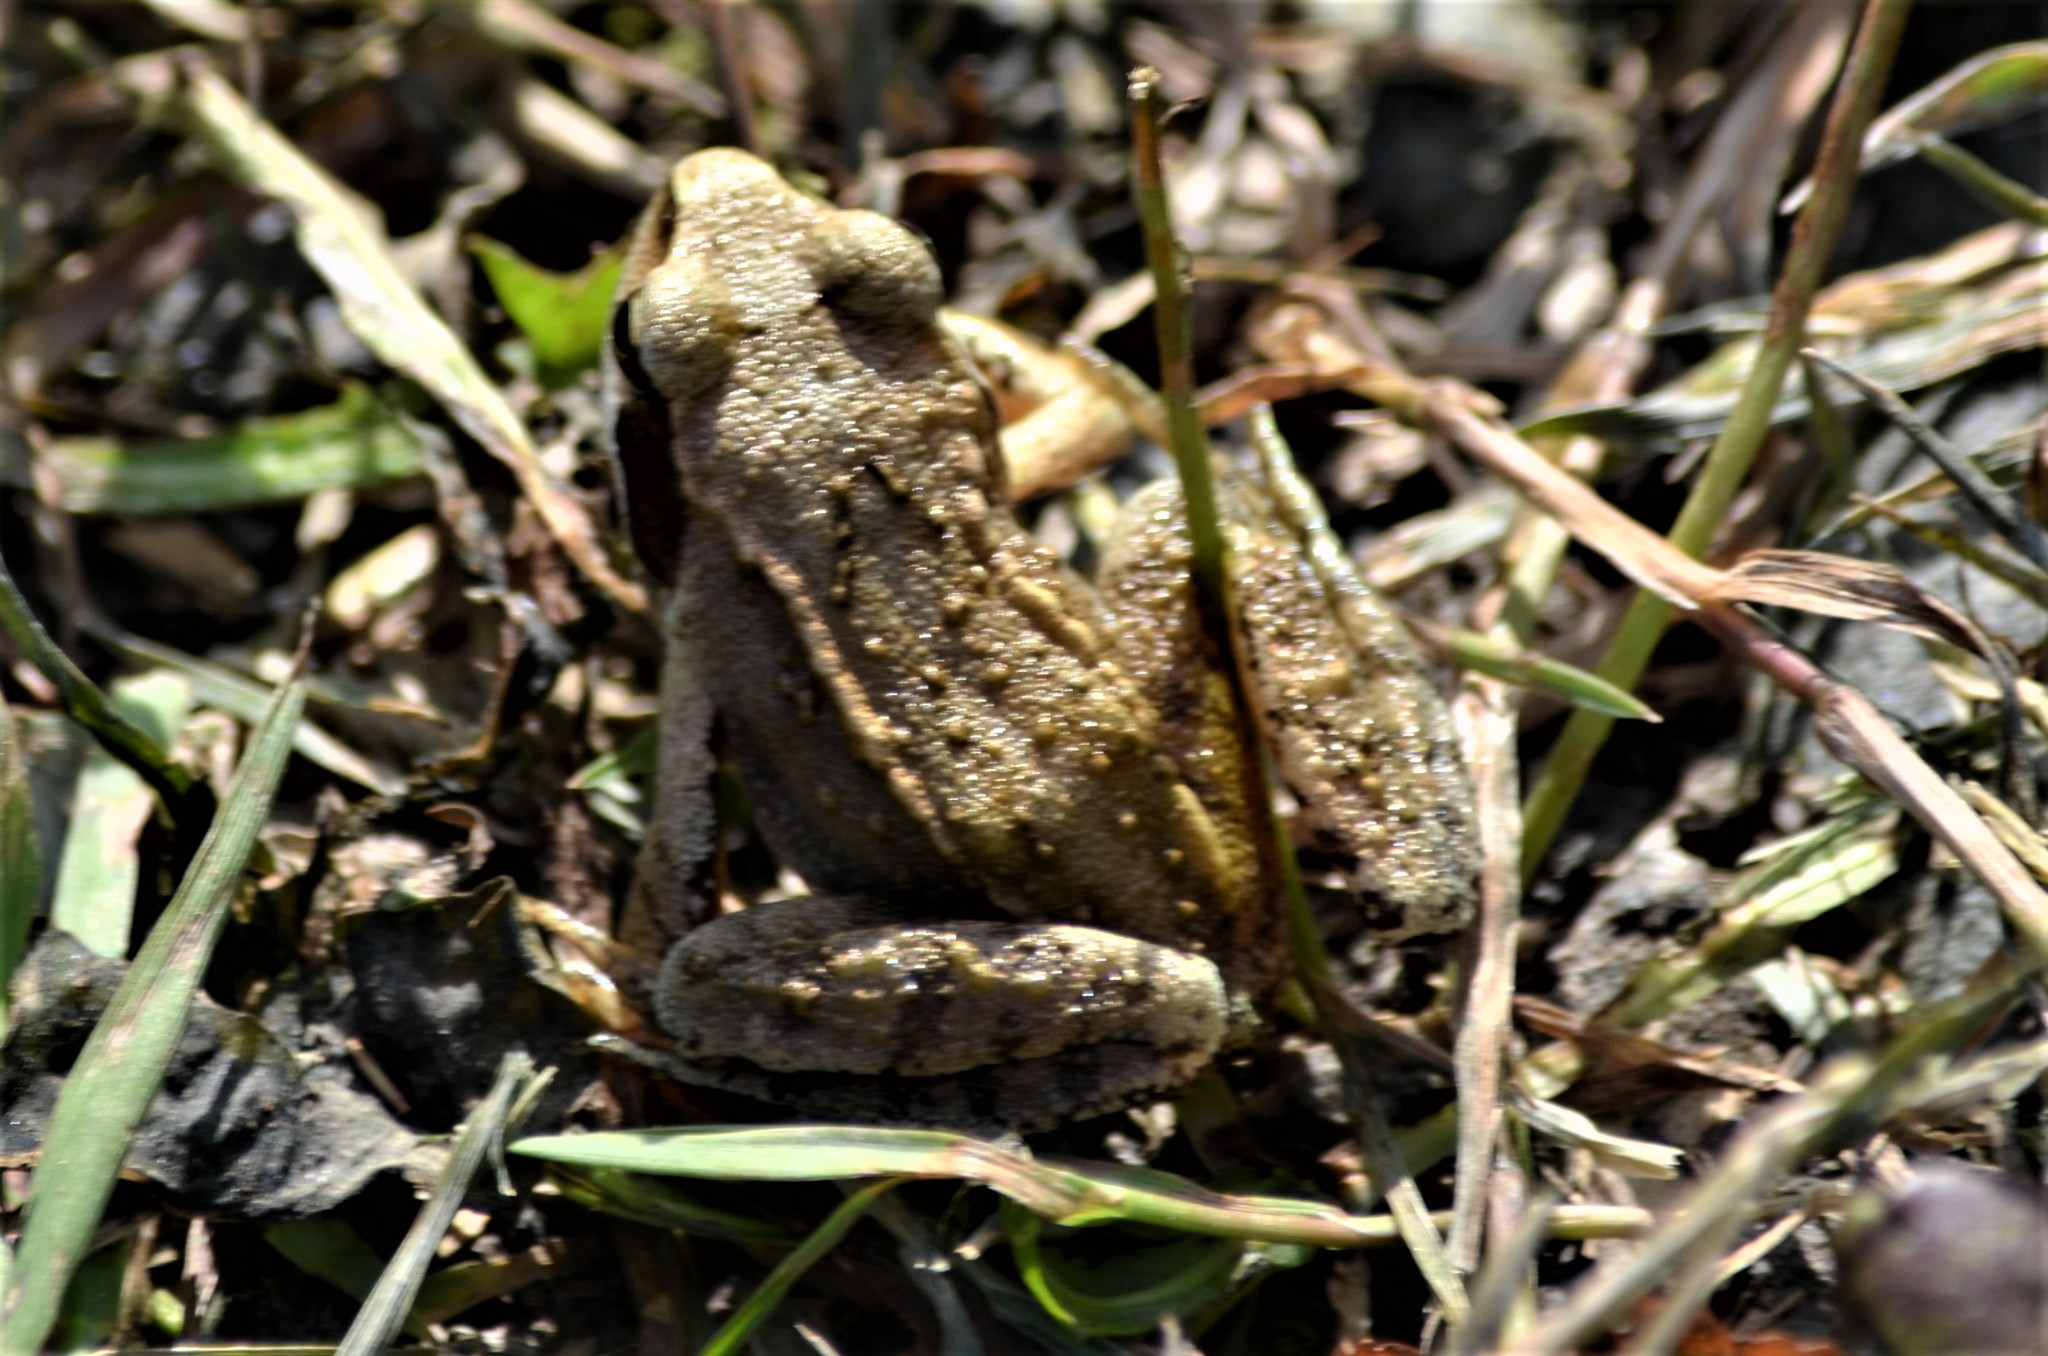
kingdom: Animalia
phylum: Chordata
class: Amphibia
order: Anura
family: Ranidae
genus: Rana
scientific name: Rana temporaria
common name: Common frog
